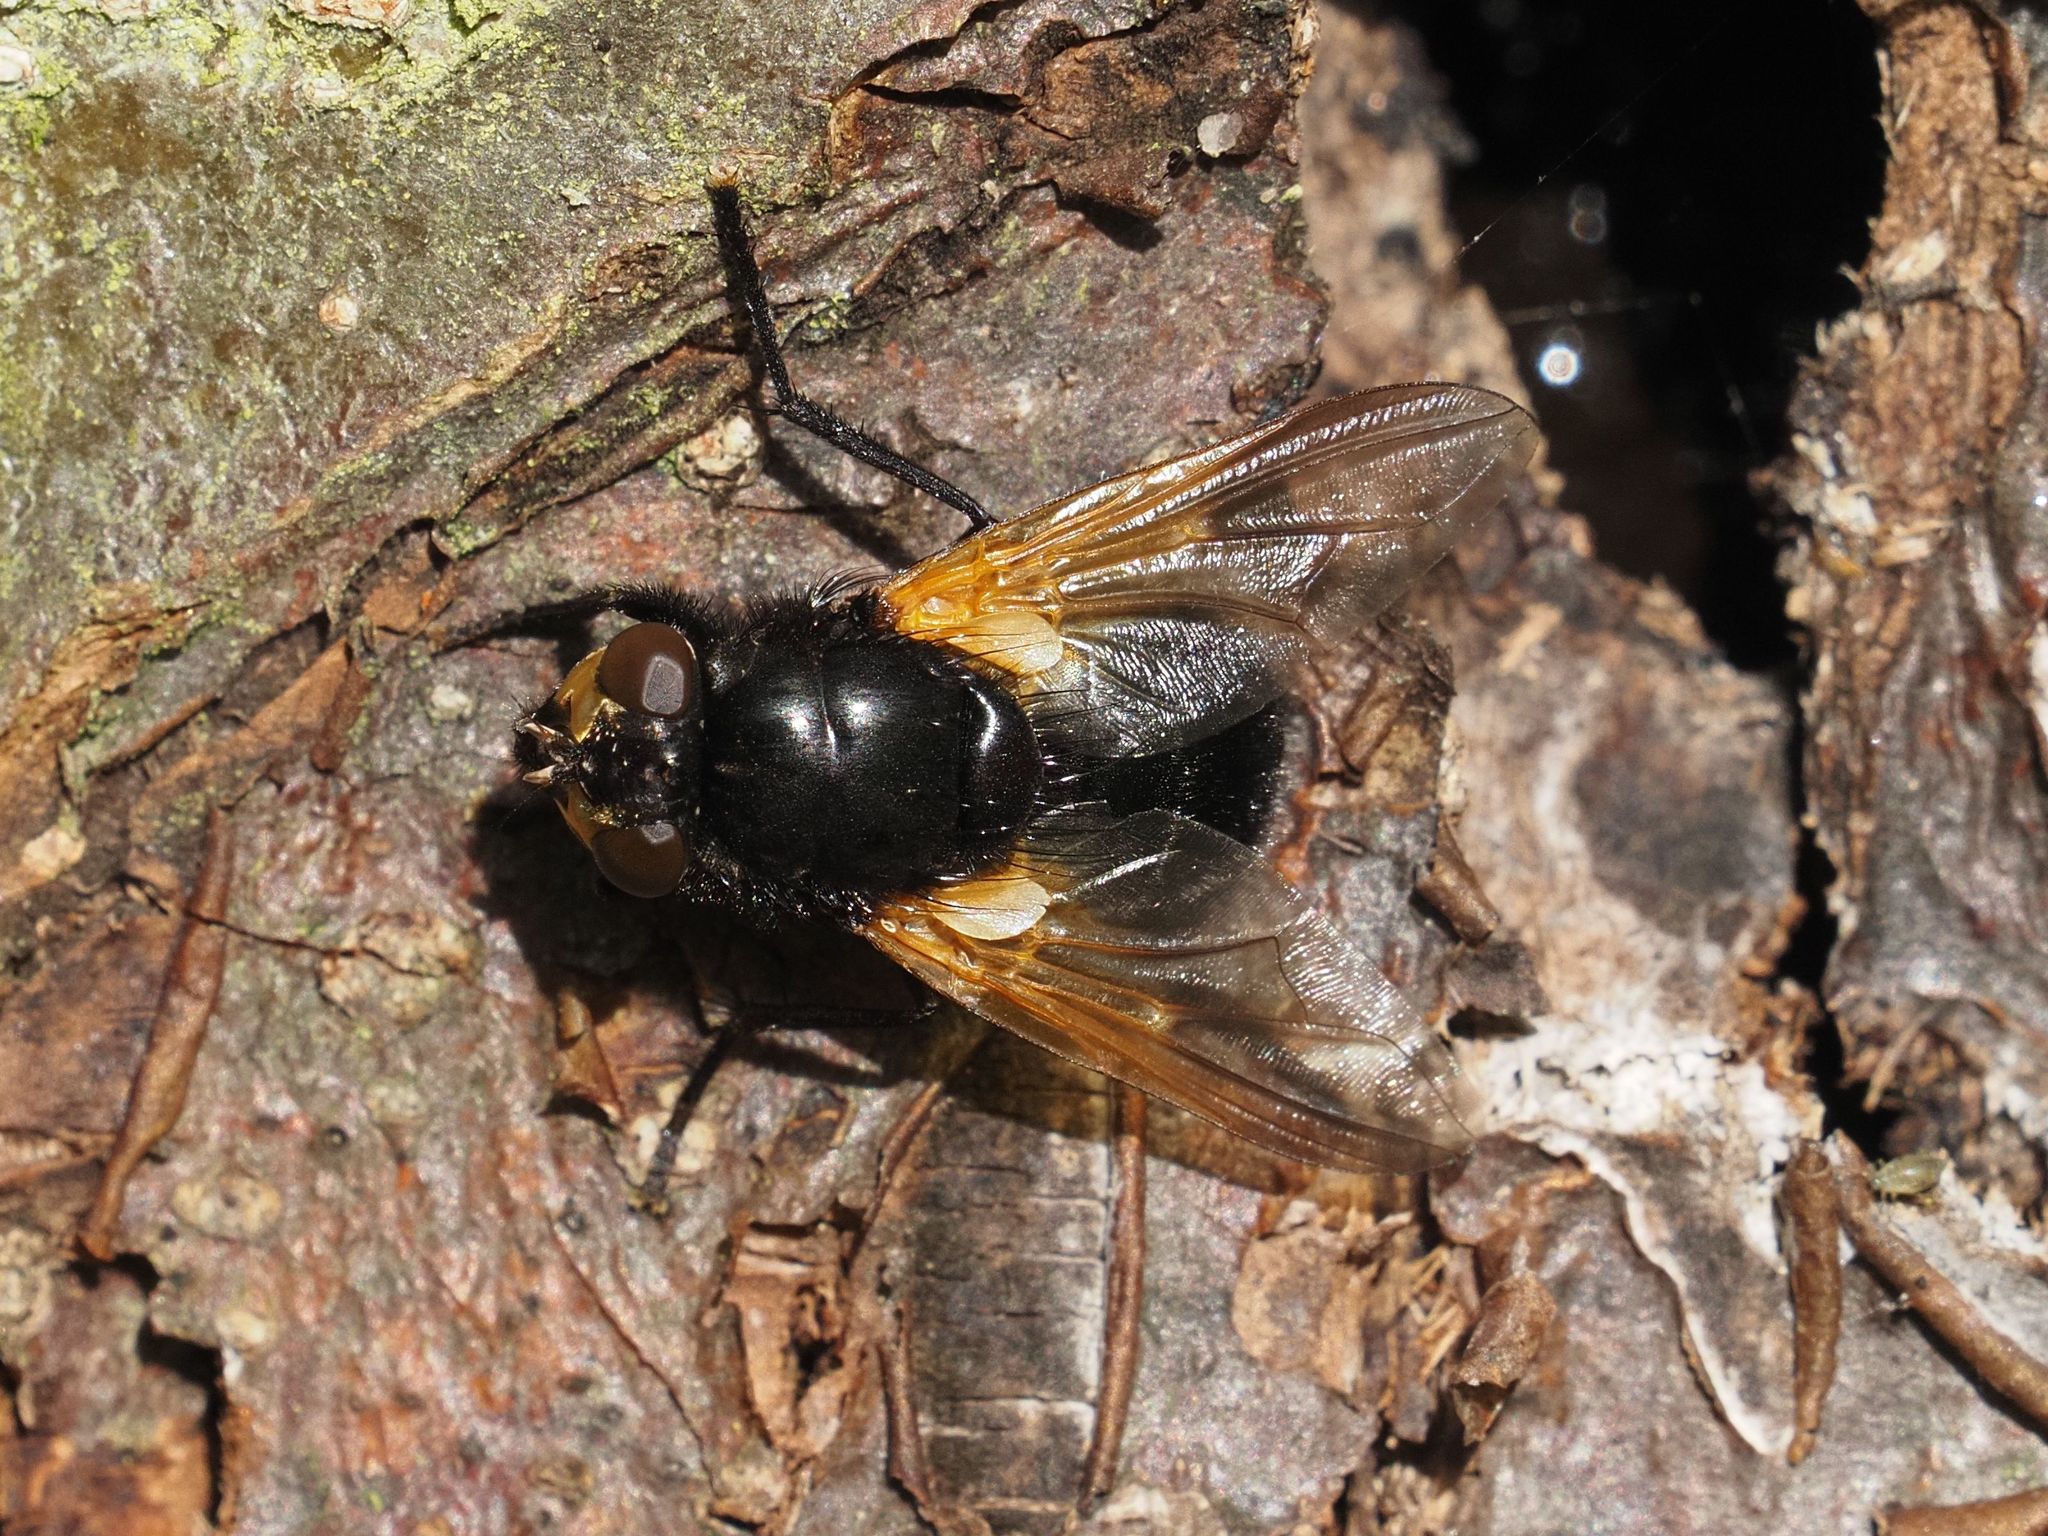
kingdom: Animalia
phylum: Arthropoda
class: Insecta
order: Diptera
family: Muscidae
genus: Mesembrina
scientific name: Mesembrina meridiana
